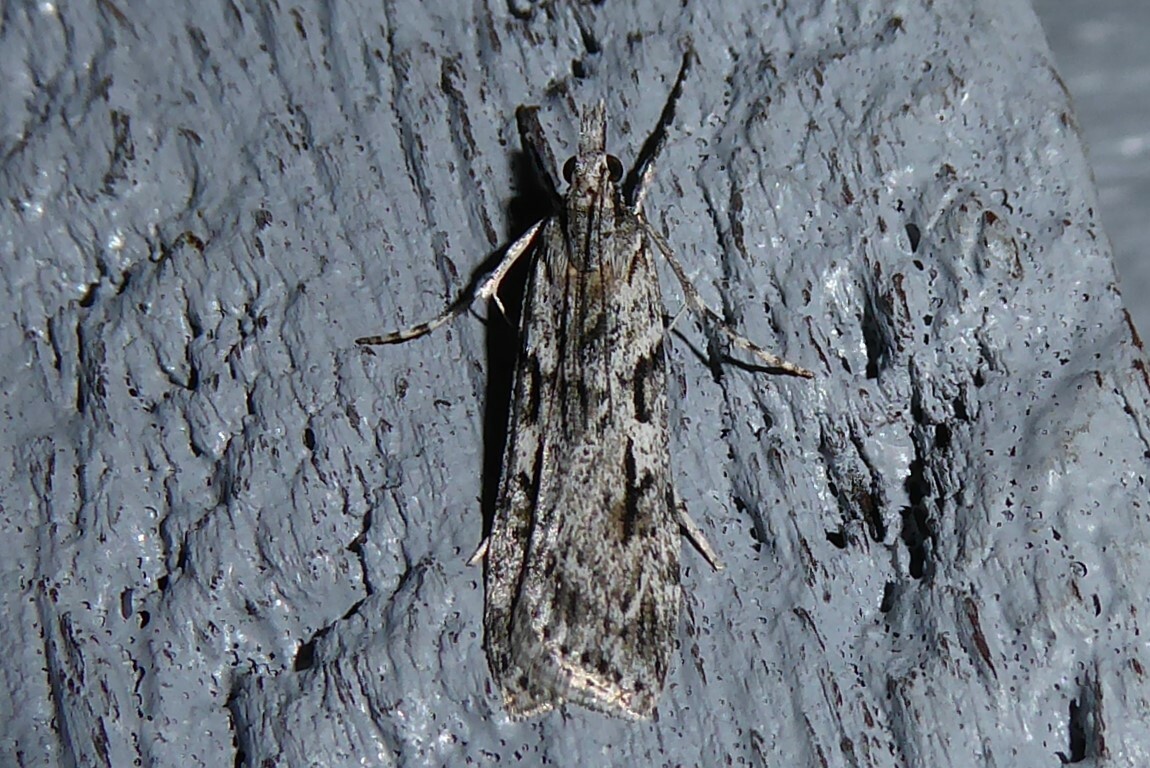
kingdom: Animalia
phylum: Arthropoda
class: Insecta
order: Lepidoptera
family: Crambidae
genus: Scoparia
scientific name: Scoparia halopis
